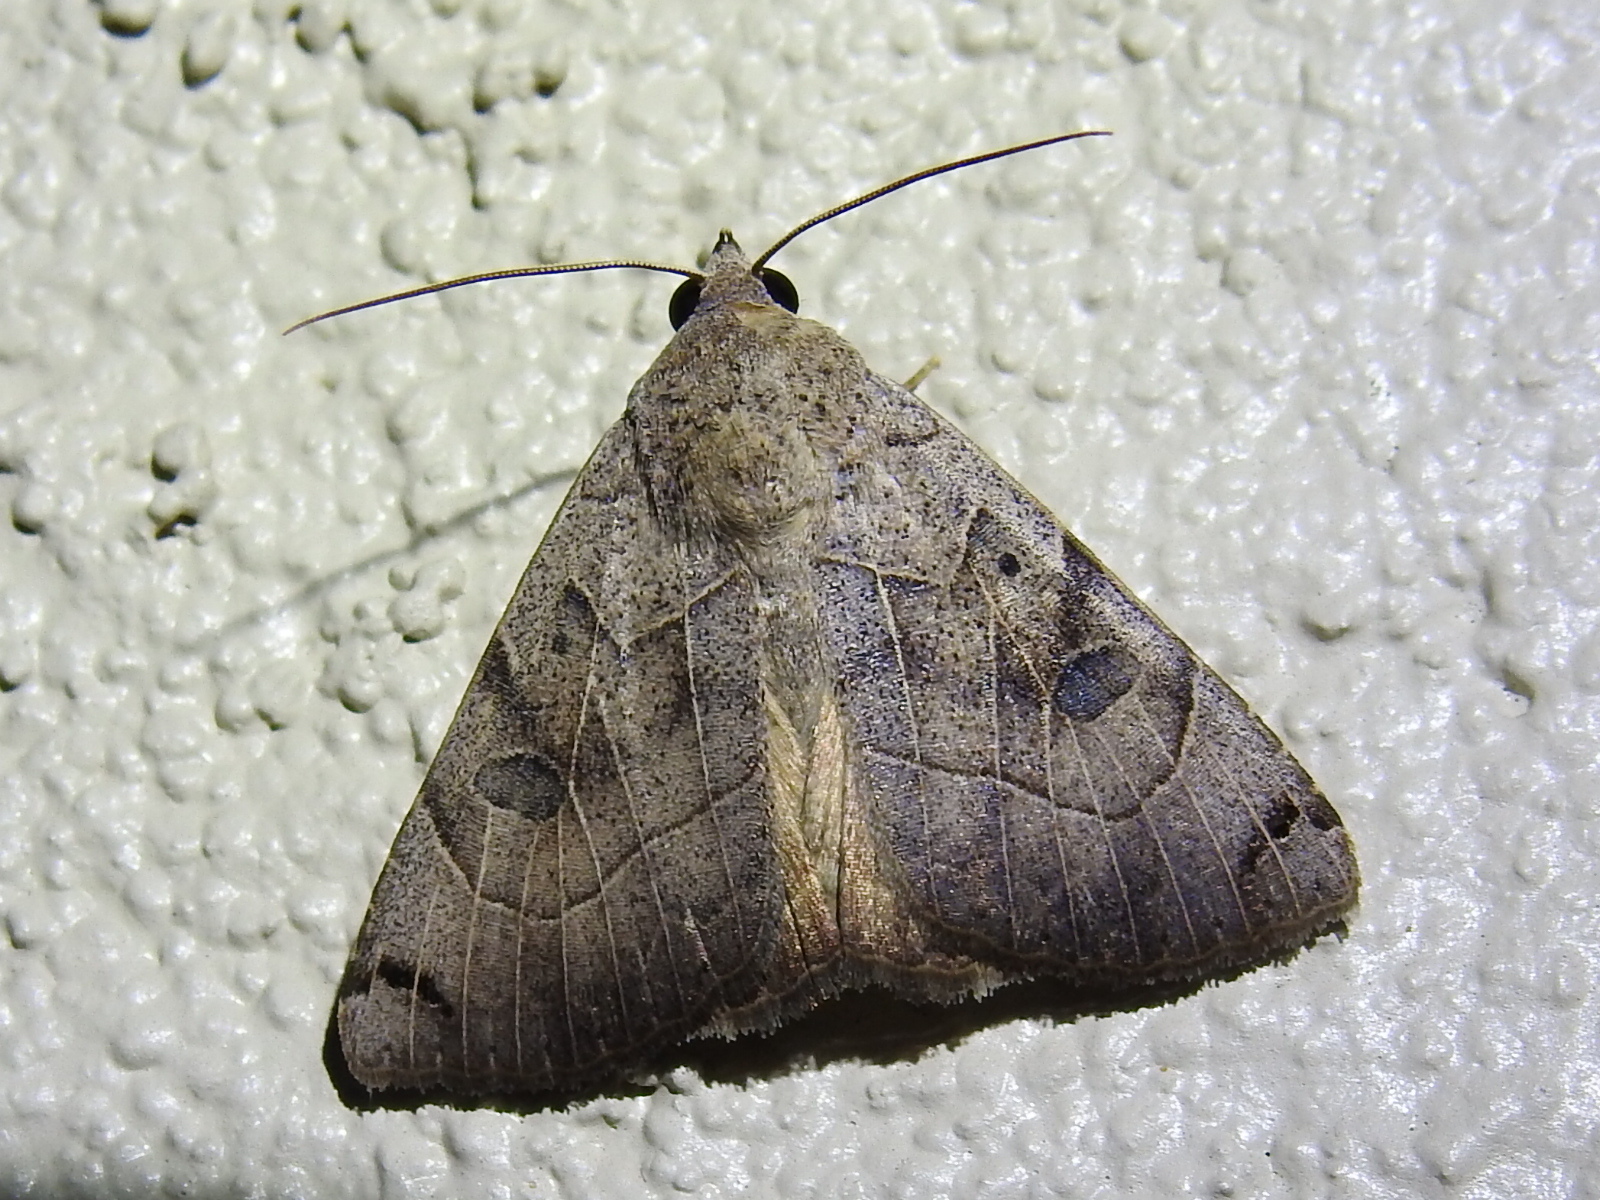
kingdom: Animalia
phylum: Arthropoda
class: Insecta
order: Lepidoptera
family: Erebidae
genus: Isogona
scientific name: Isogona scindens
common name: Owlet moth
